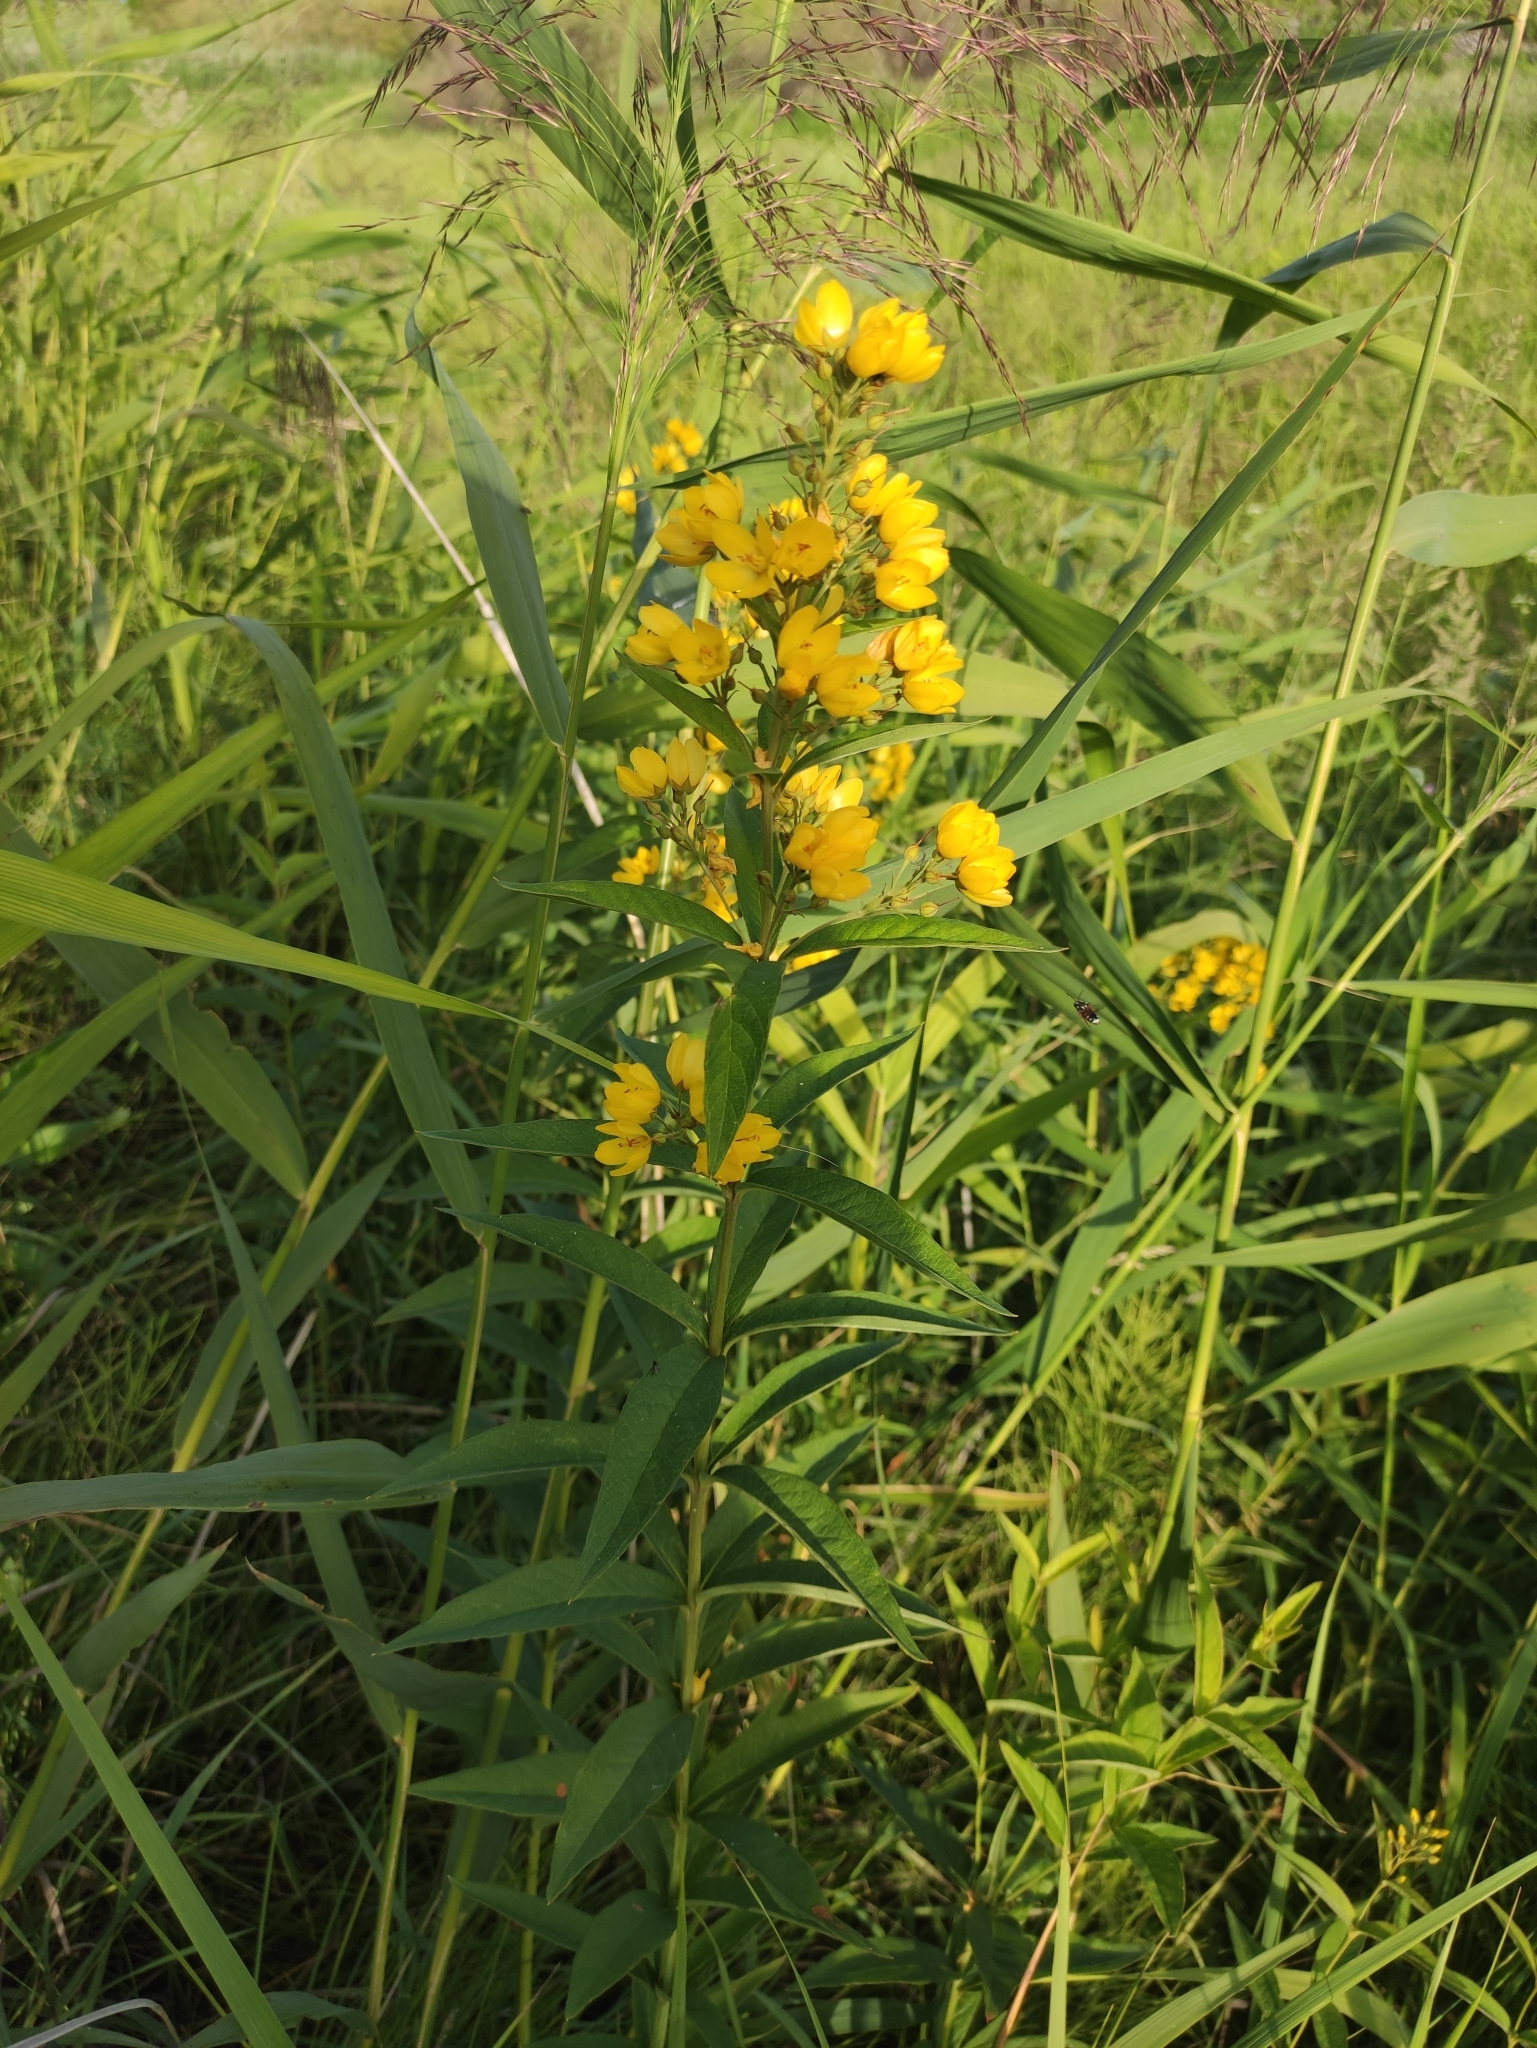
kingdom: Plantae
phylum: Tracheophyta
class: Magnoliopsida
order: Ericales
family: Primulaceae
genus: Lysimachia
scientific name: Lysimachia davurica
